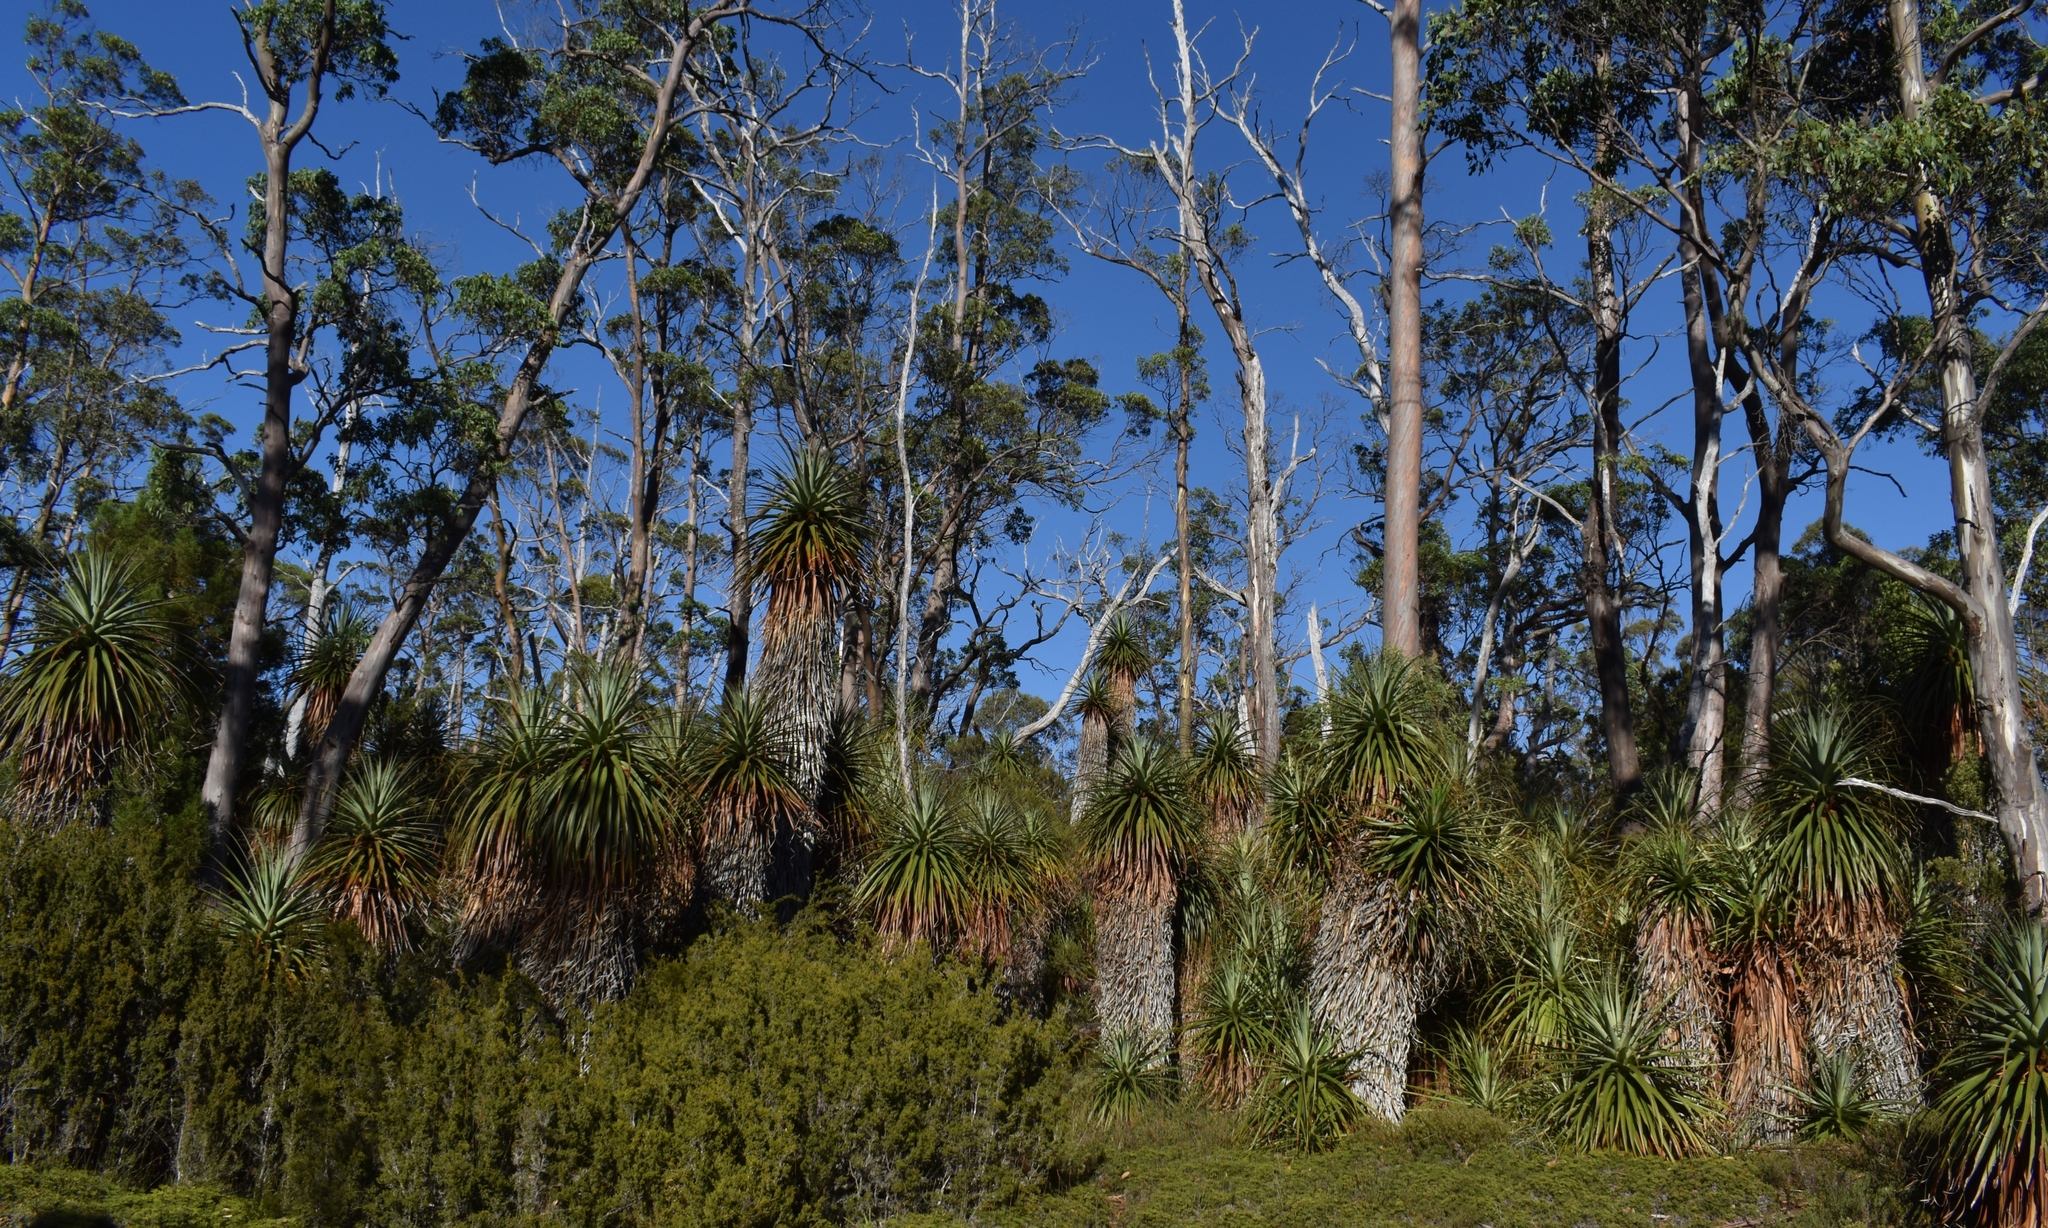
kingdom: Plantae
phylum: Tracheophyta
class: Magnoliopsida
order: Ericales
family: Ericaceae
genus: Dracophyllum
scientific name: Dracophyllum pandanifolium
